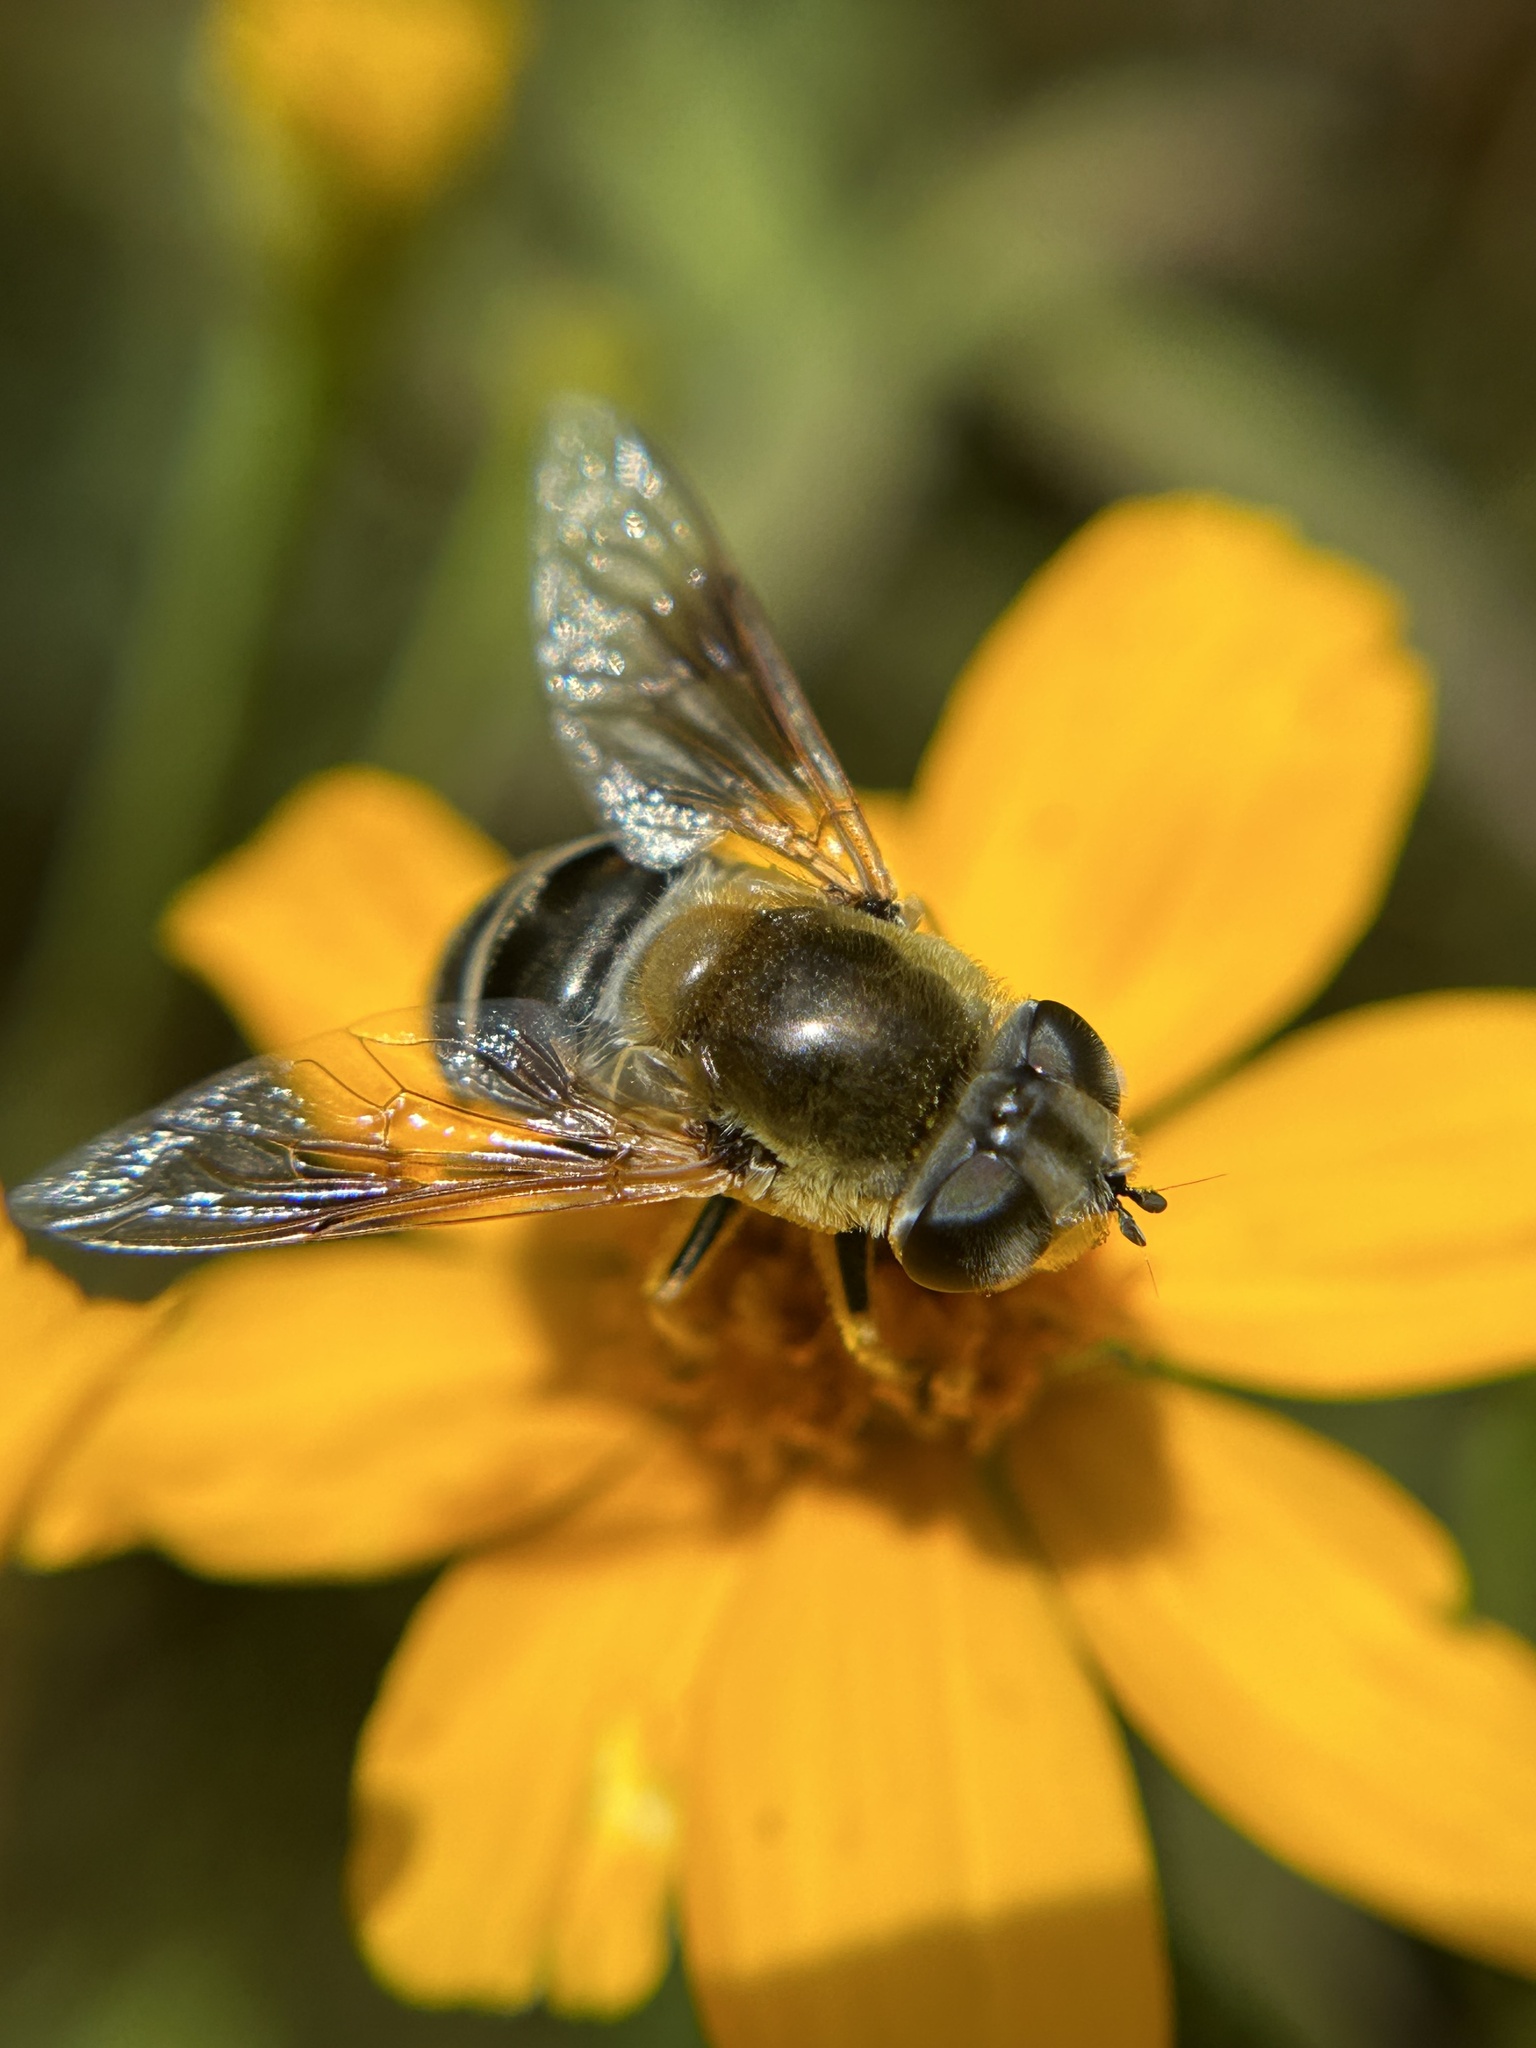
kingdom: Animalia
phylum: Arthropoda
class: Insecta
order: Diptera
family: Syrphidae
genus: Eristalis
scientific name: Eristalis stipator
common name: Yellow-shouldered drone fly
